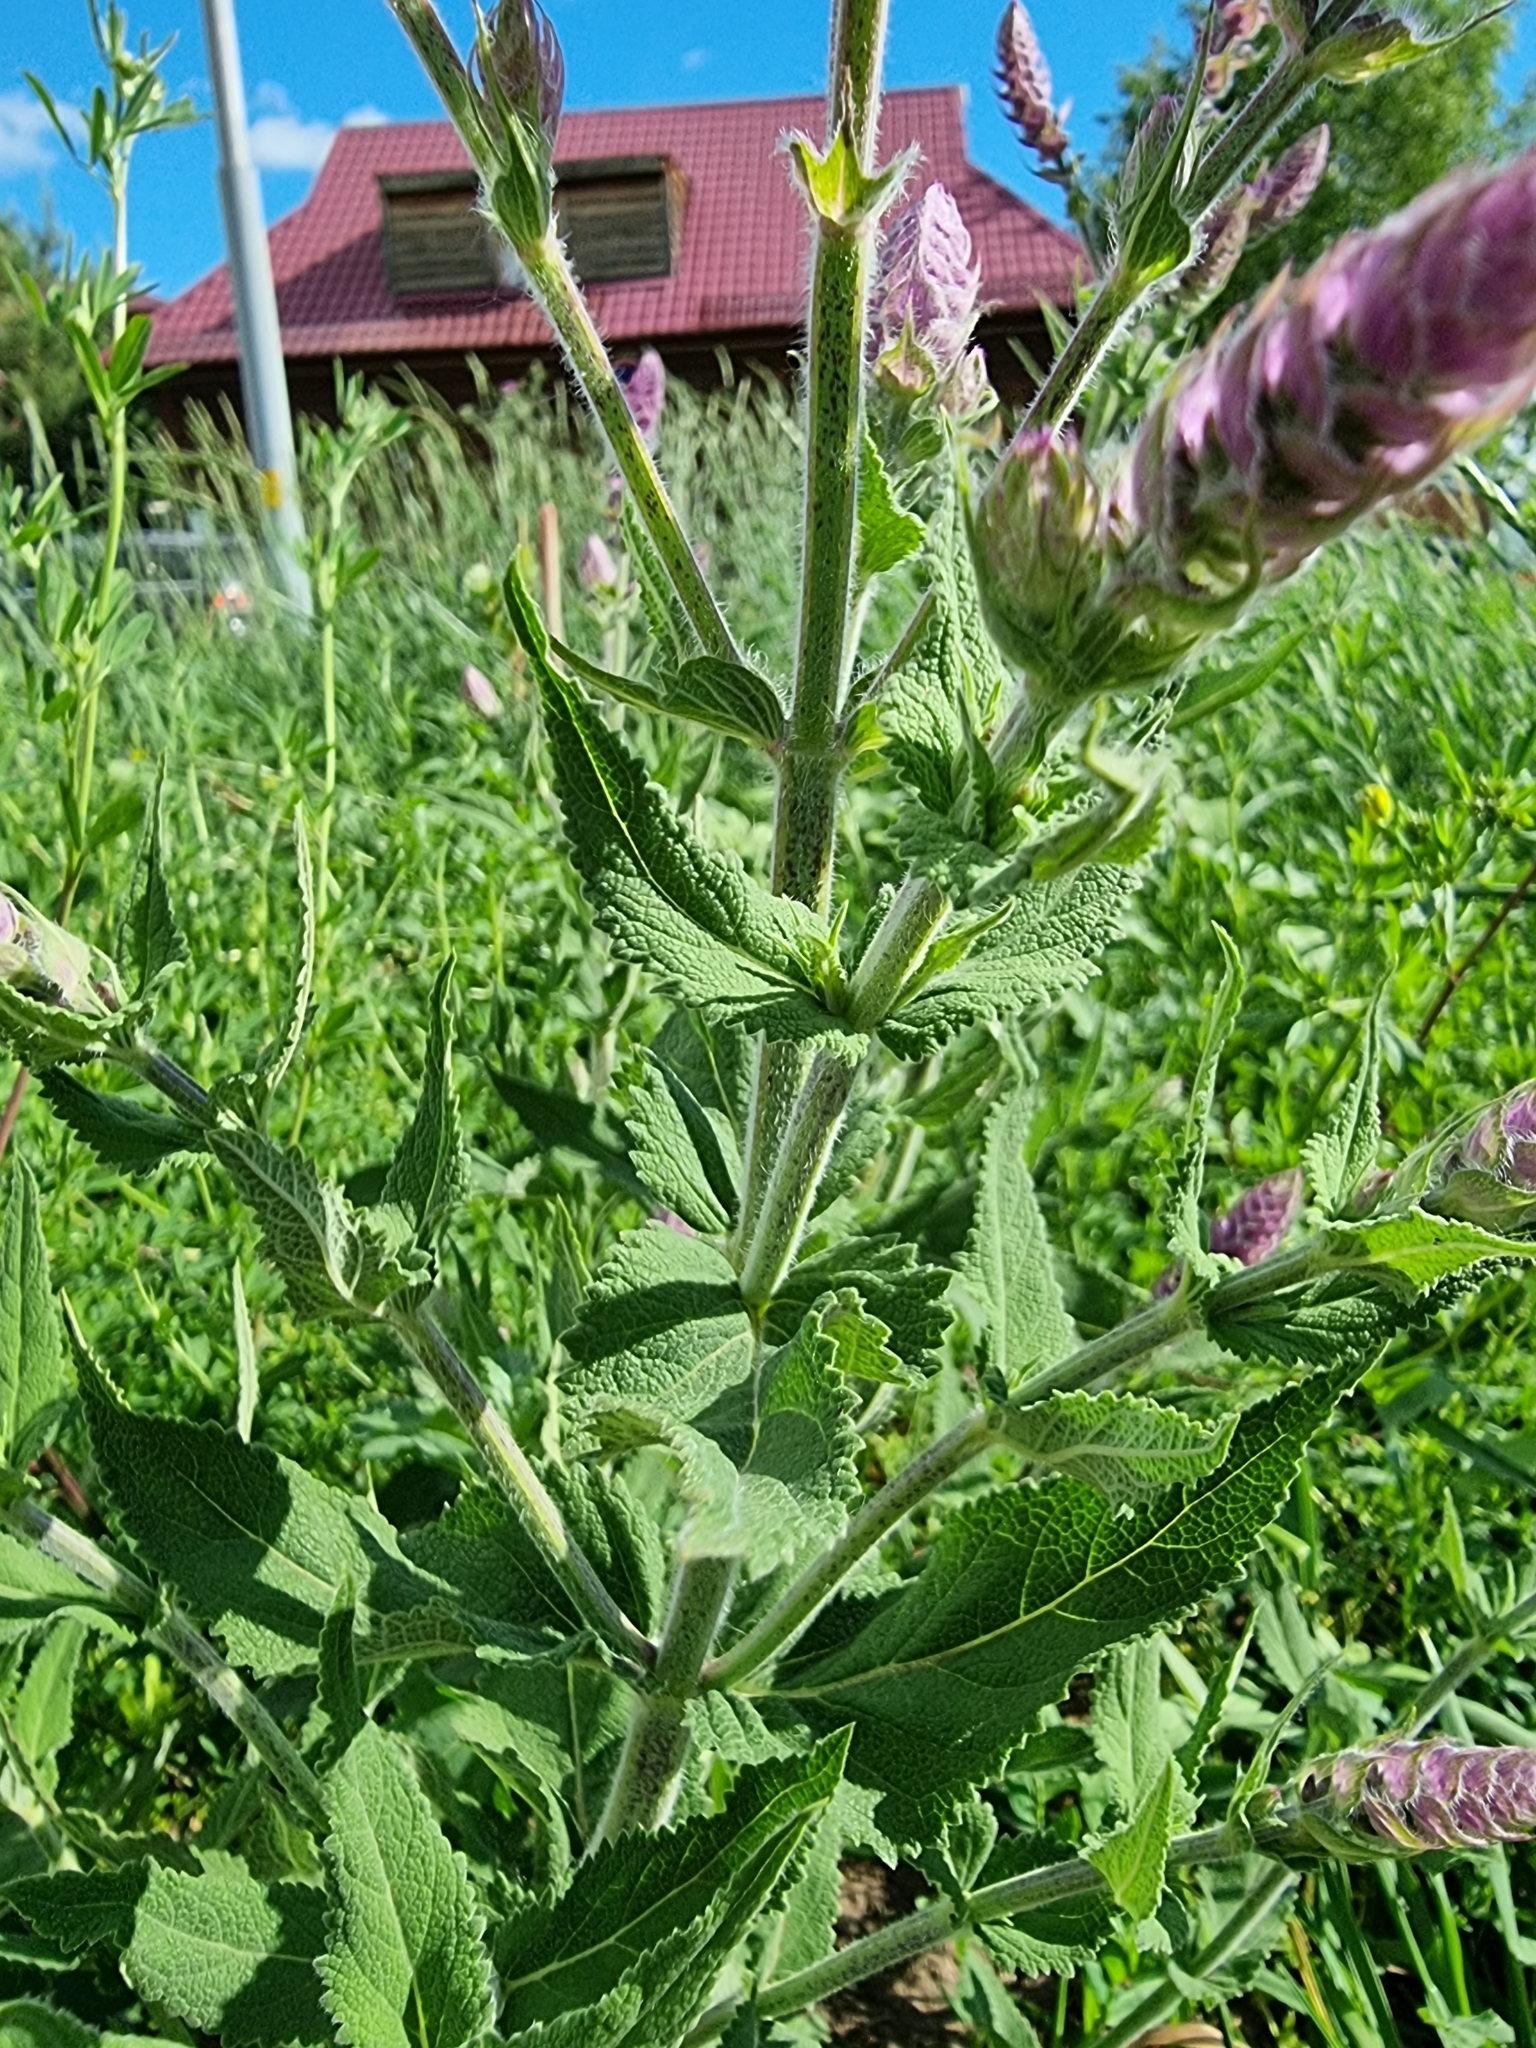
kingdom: Plantae
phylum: Tracheophyta
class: Magnoliopsida
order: Lamiales
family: Lamiaceae
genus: Salvia
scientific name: Salvia nemorosa
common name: Balkan clary
